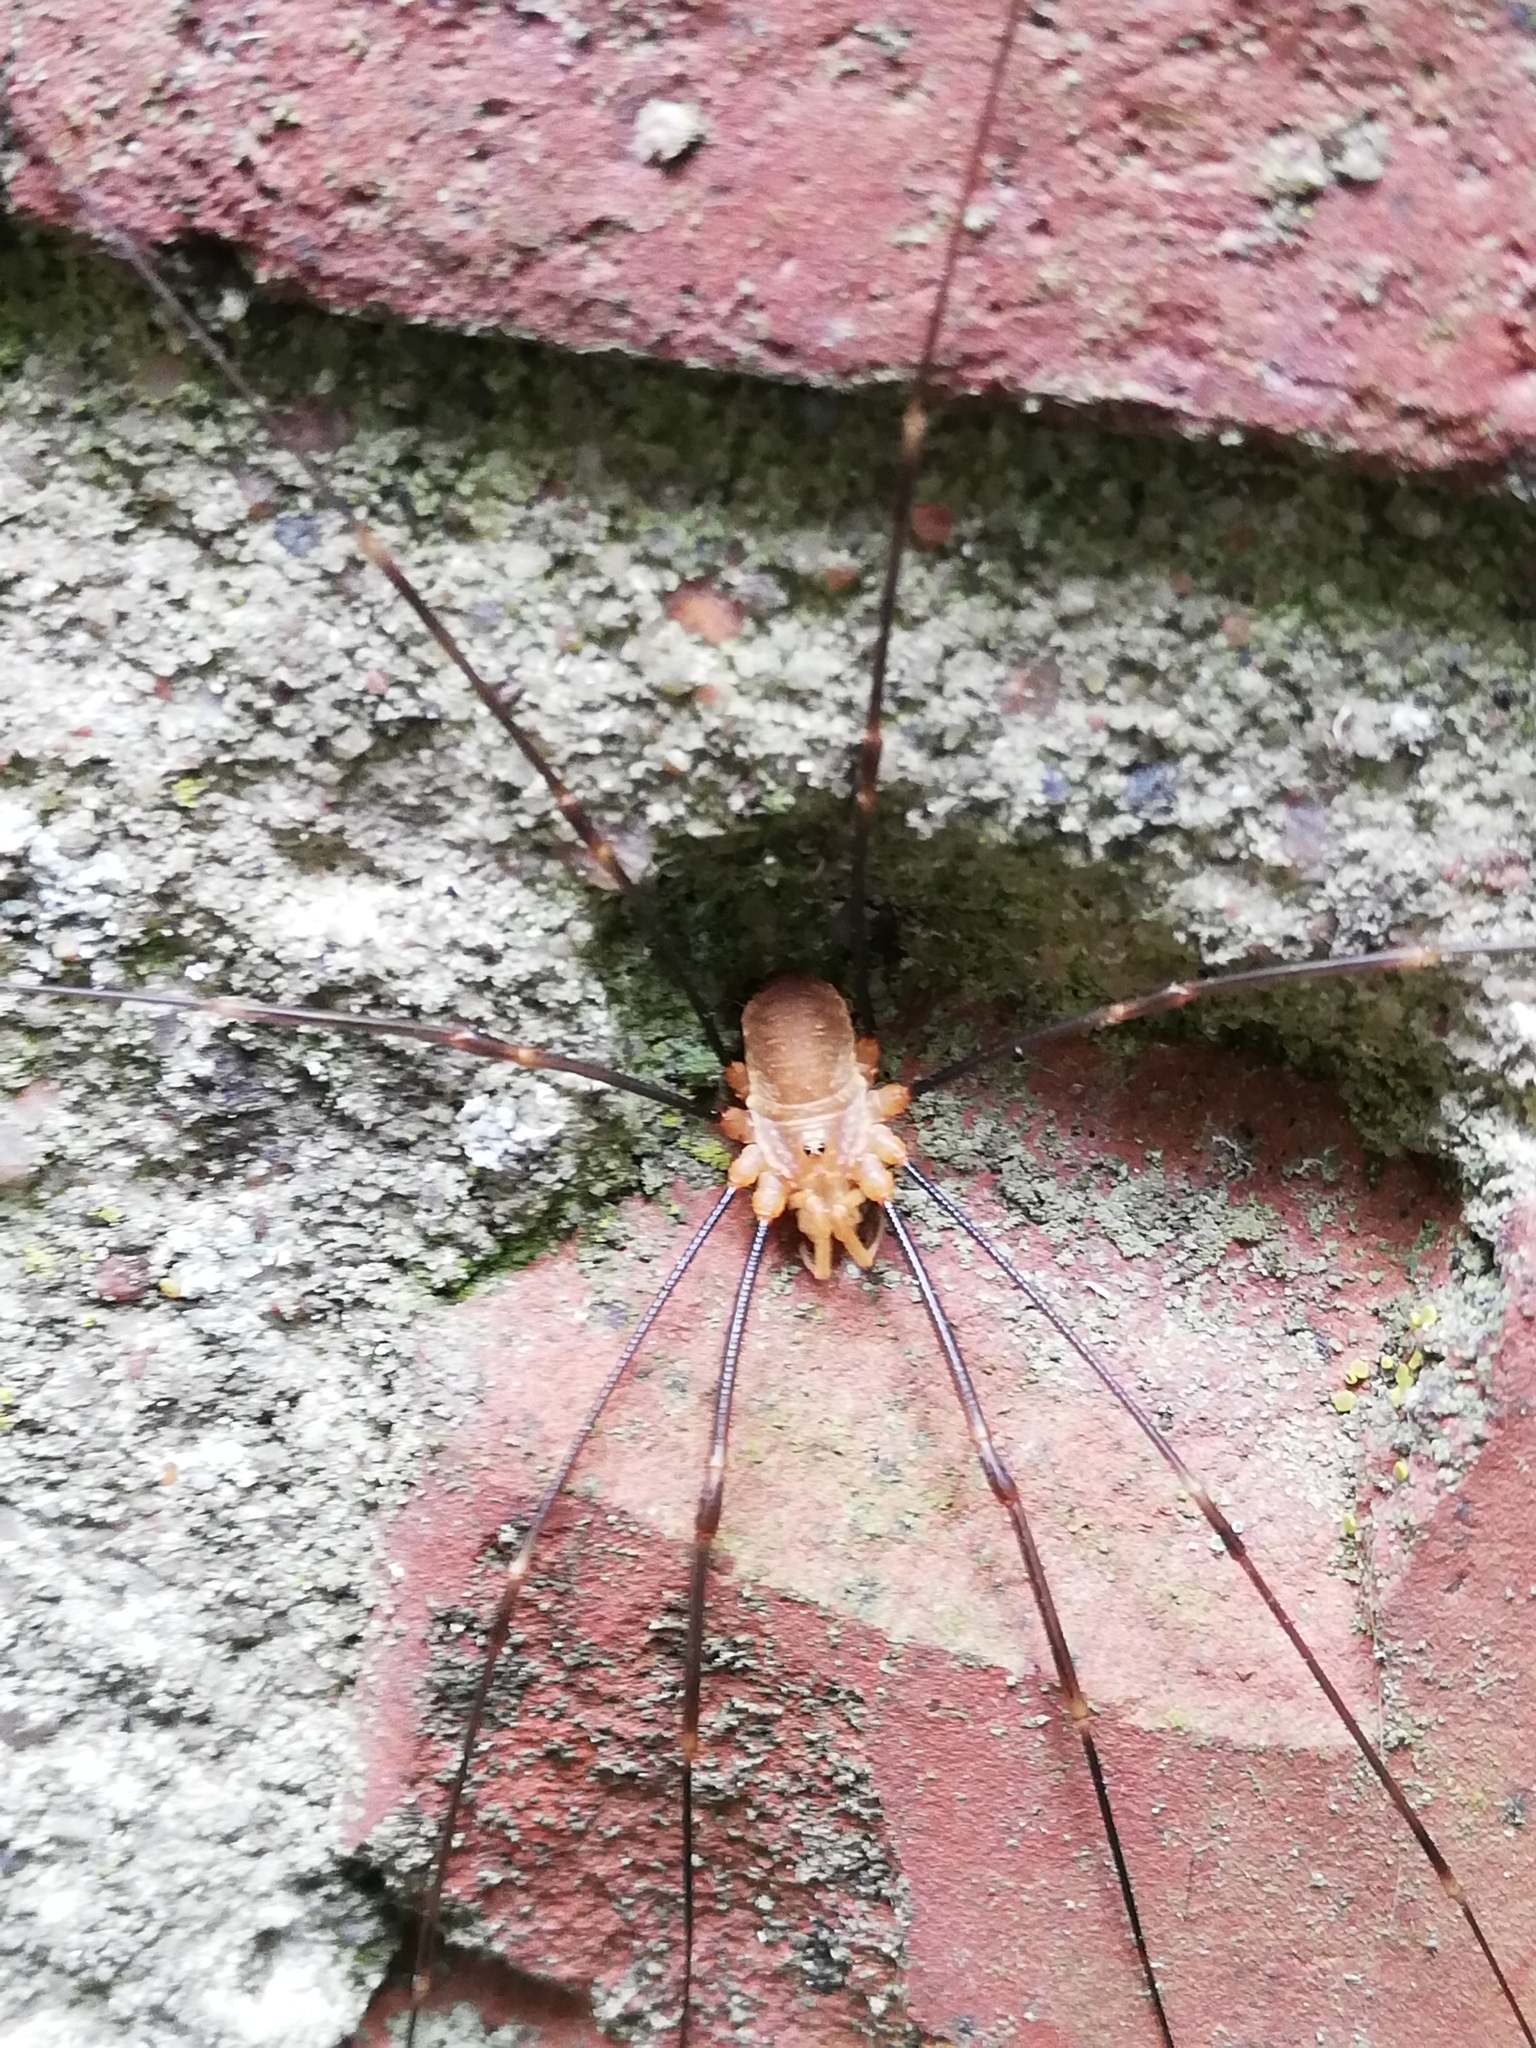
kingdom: Animalia
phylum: Arthropoda
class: Arachnida
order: Opiliones
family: Phalangiidae
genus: Opilio
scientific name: Opilio canestrinii
